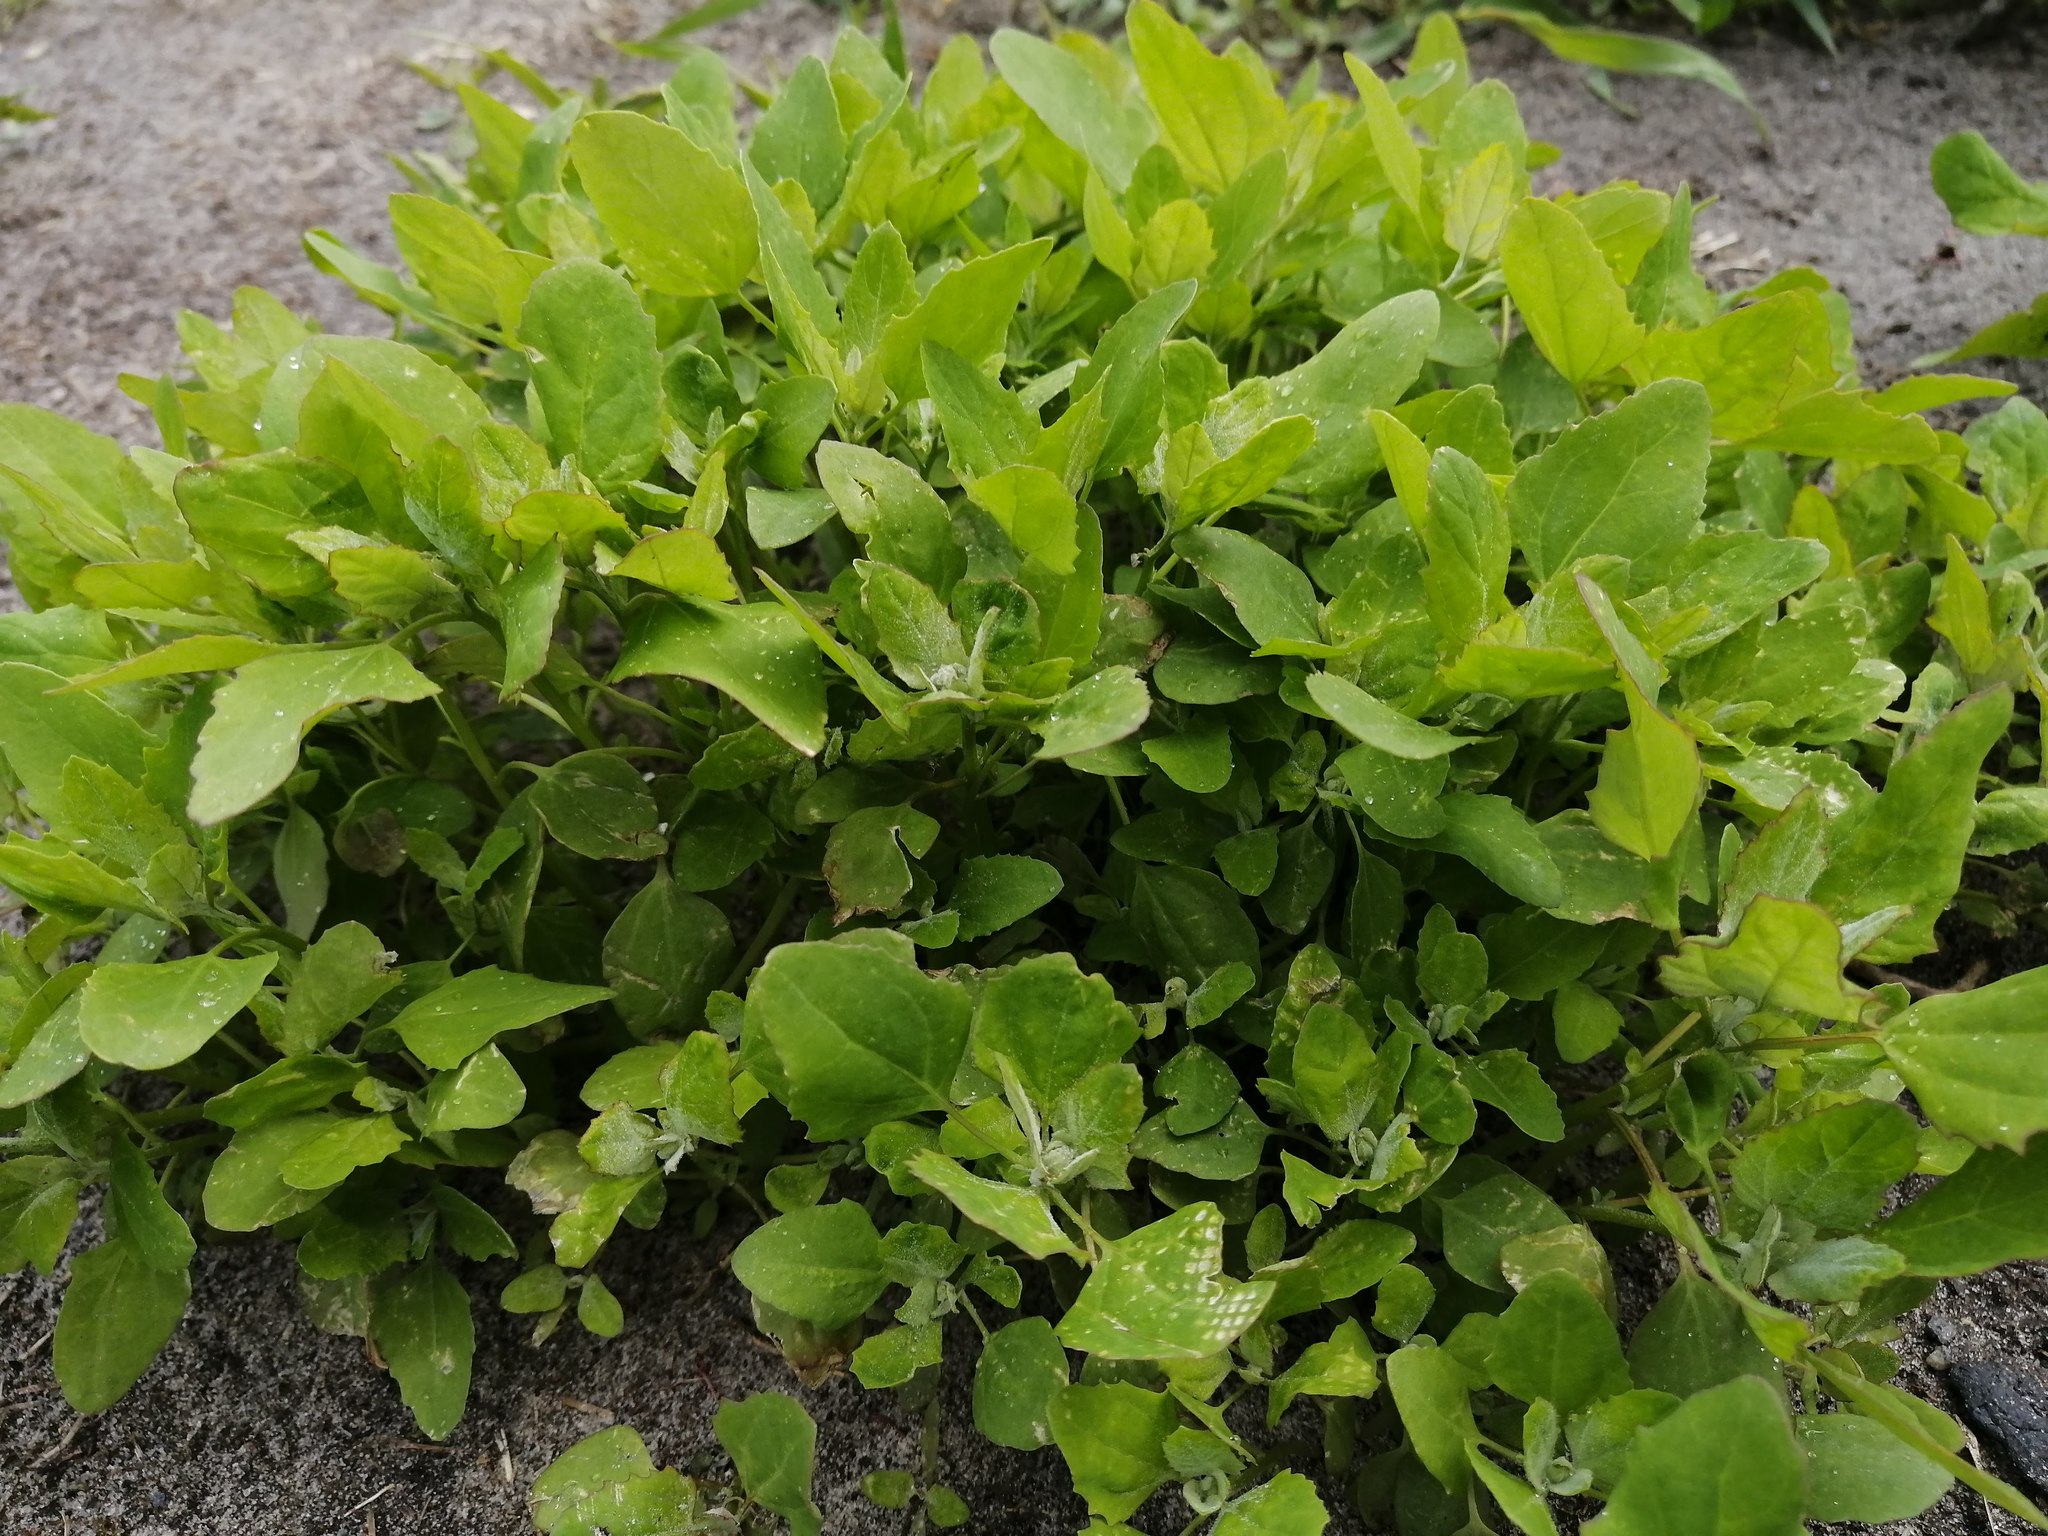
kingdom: Plantae
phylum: Tracheophyta
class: Magnoliopsida
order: Caryophyllales
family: Amaranthaceae
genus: Chenopodium
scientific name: Chenopodium album
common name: Fat-hen
